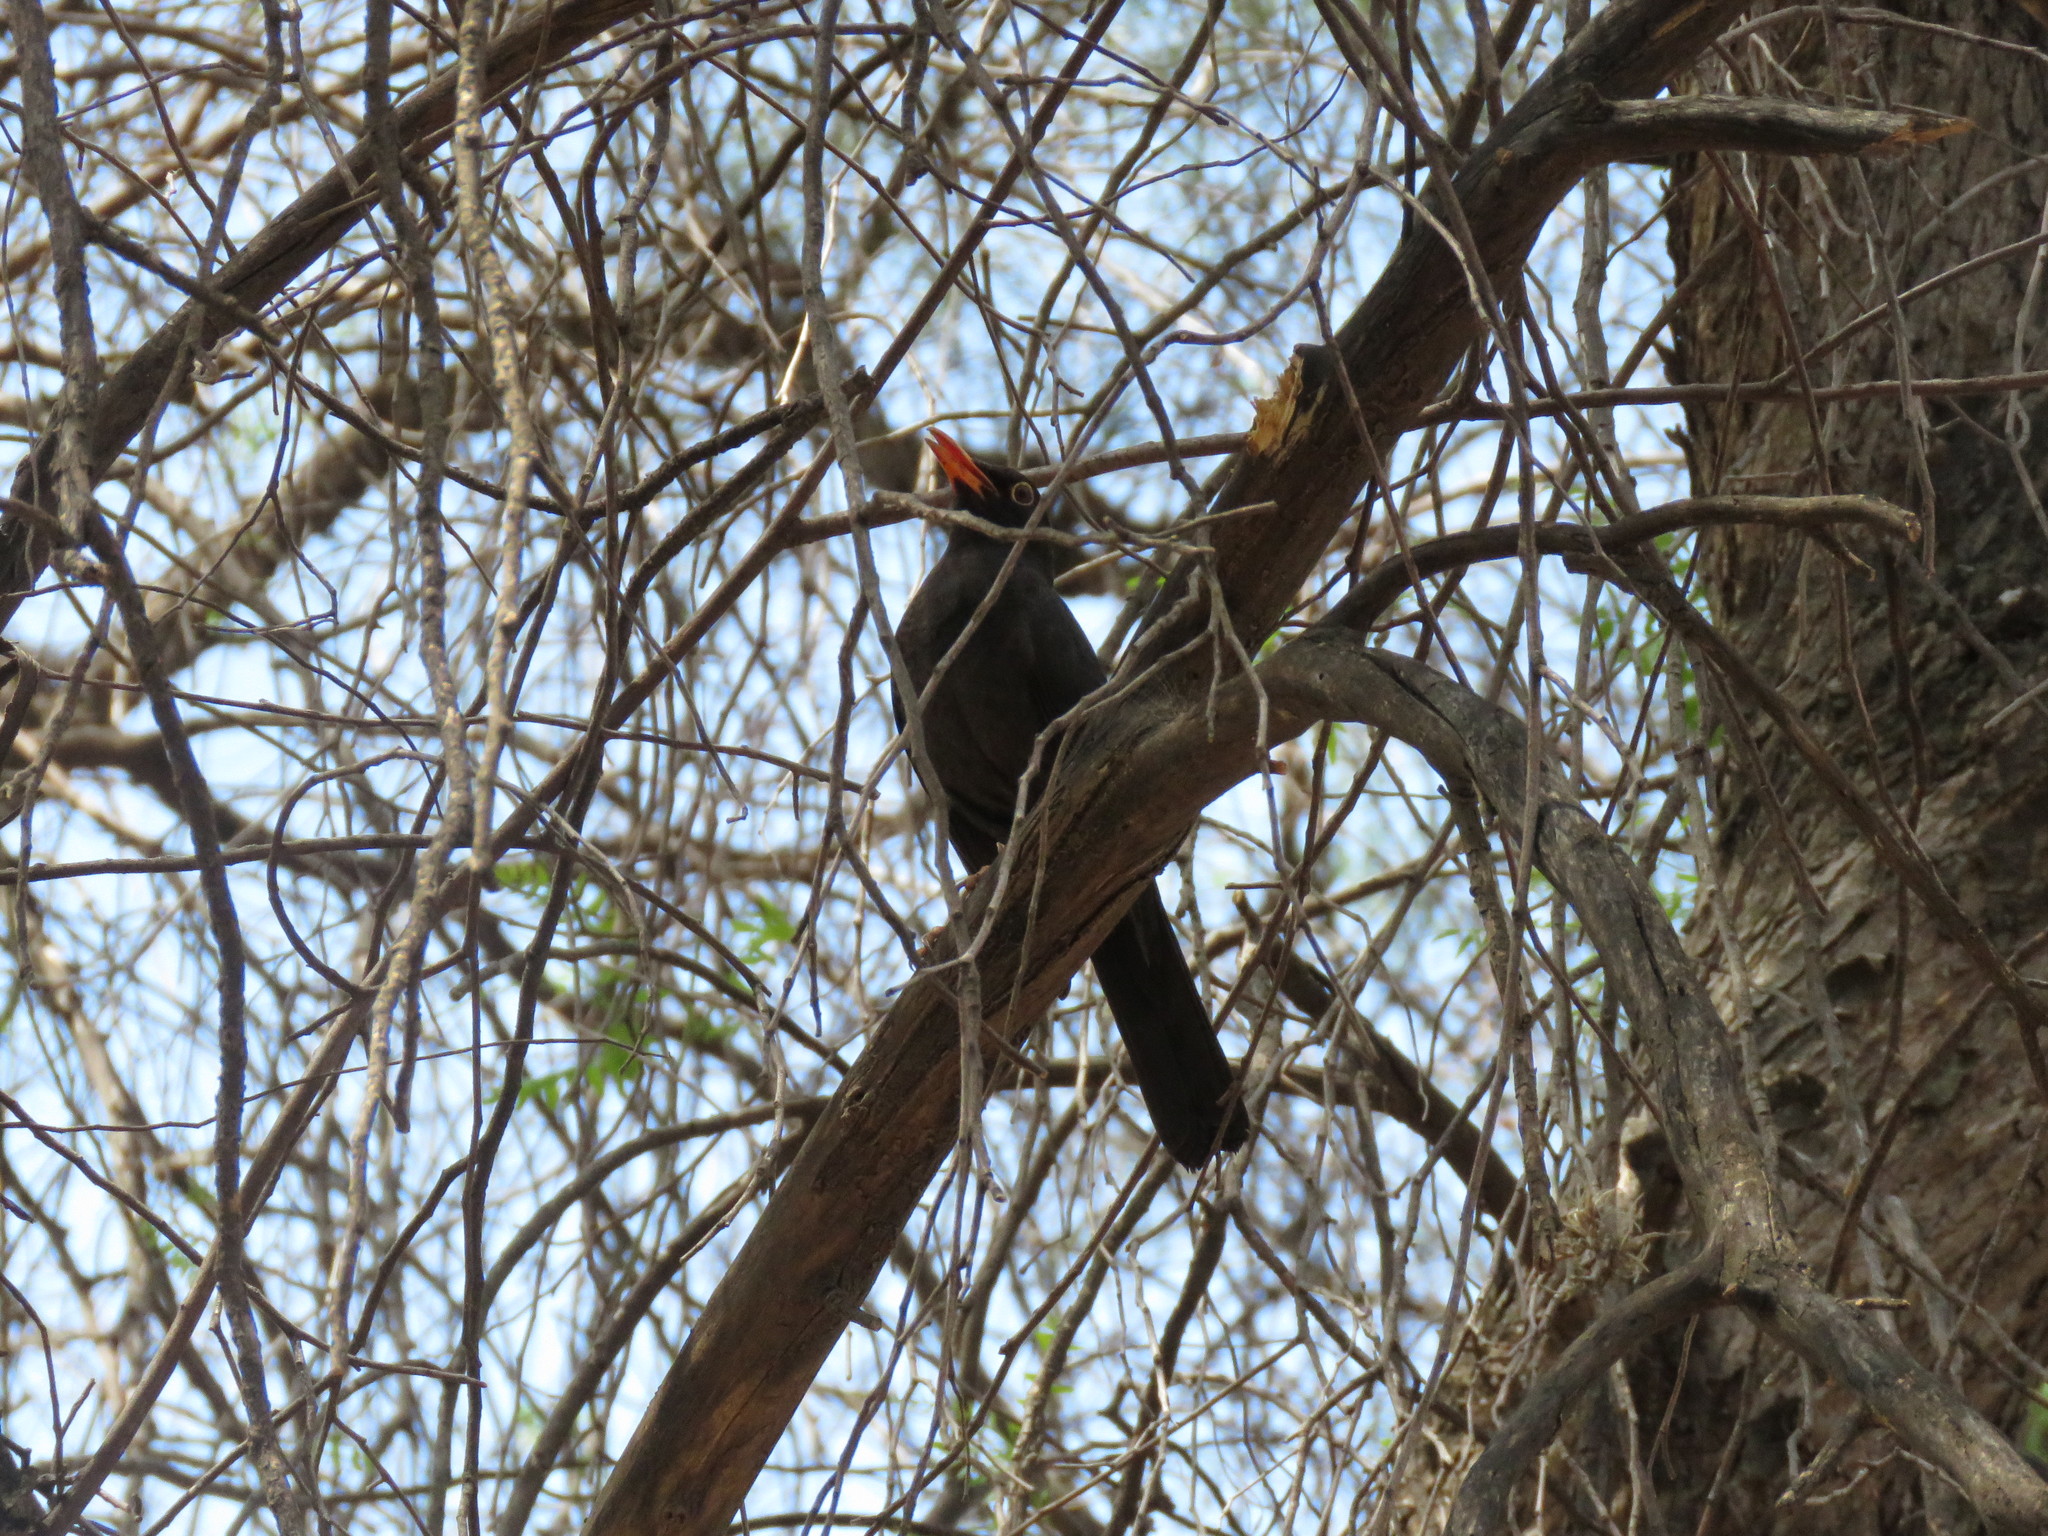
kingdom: Animalia
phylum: Chordata
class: Aves
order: Passeriformes
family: Turdidae
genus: Turdus
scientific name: Turdus chiguanco
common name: Chiguanco thrush
